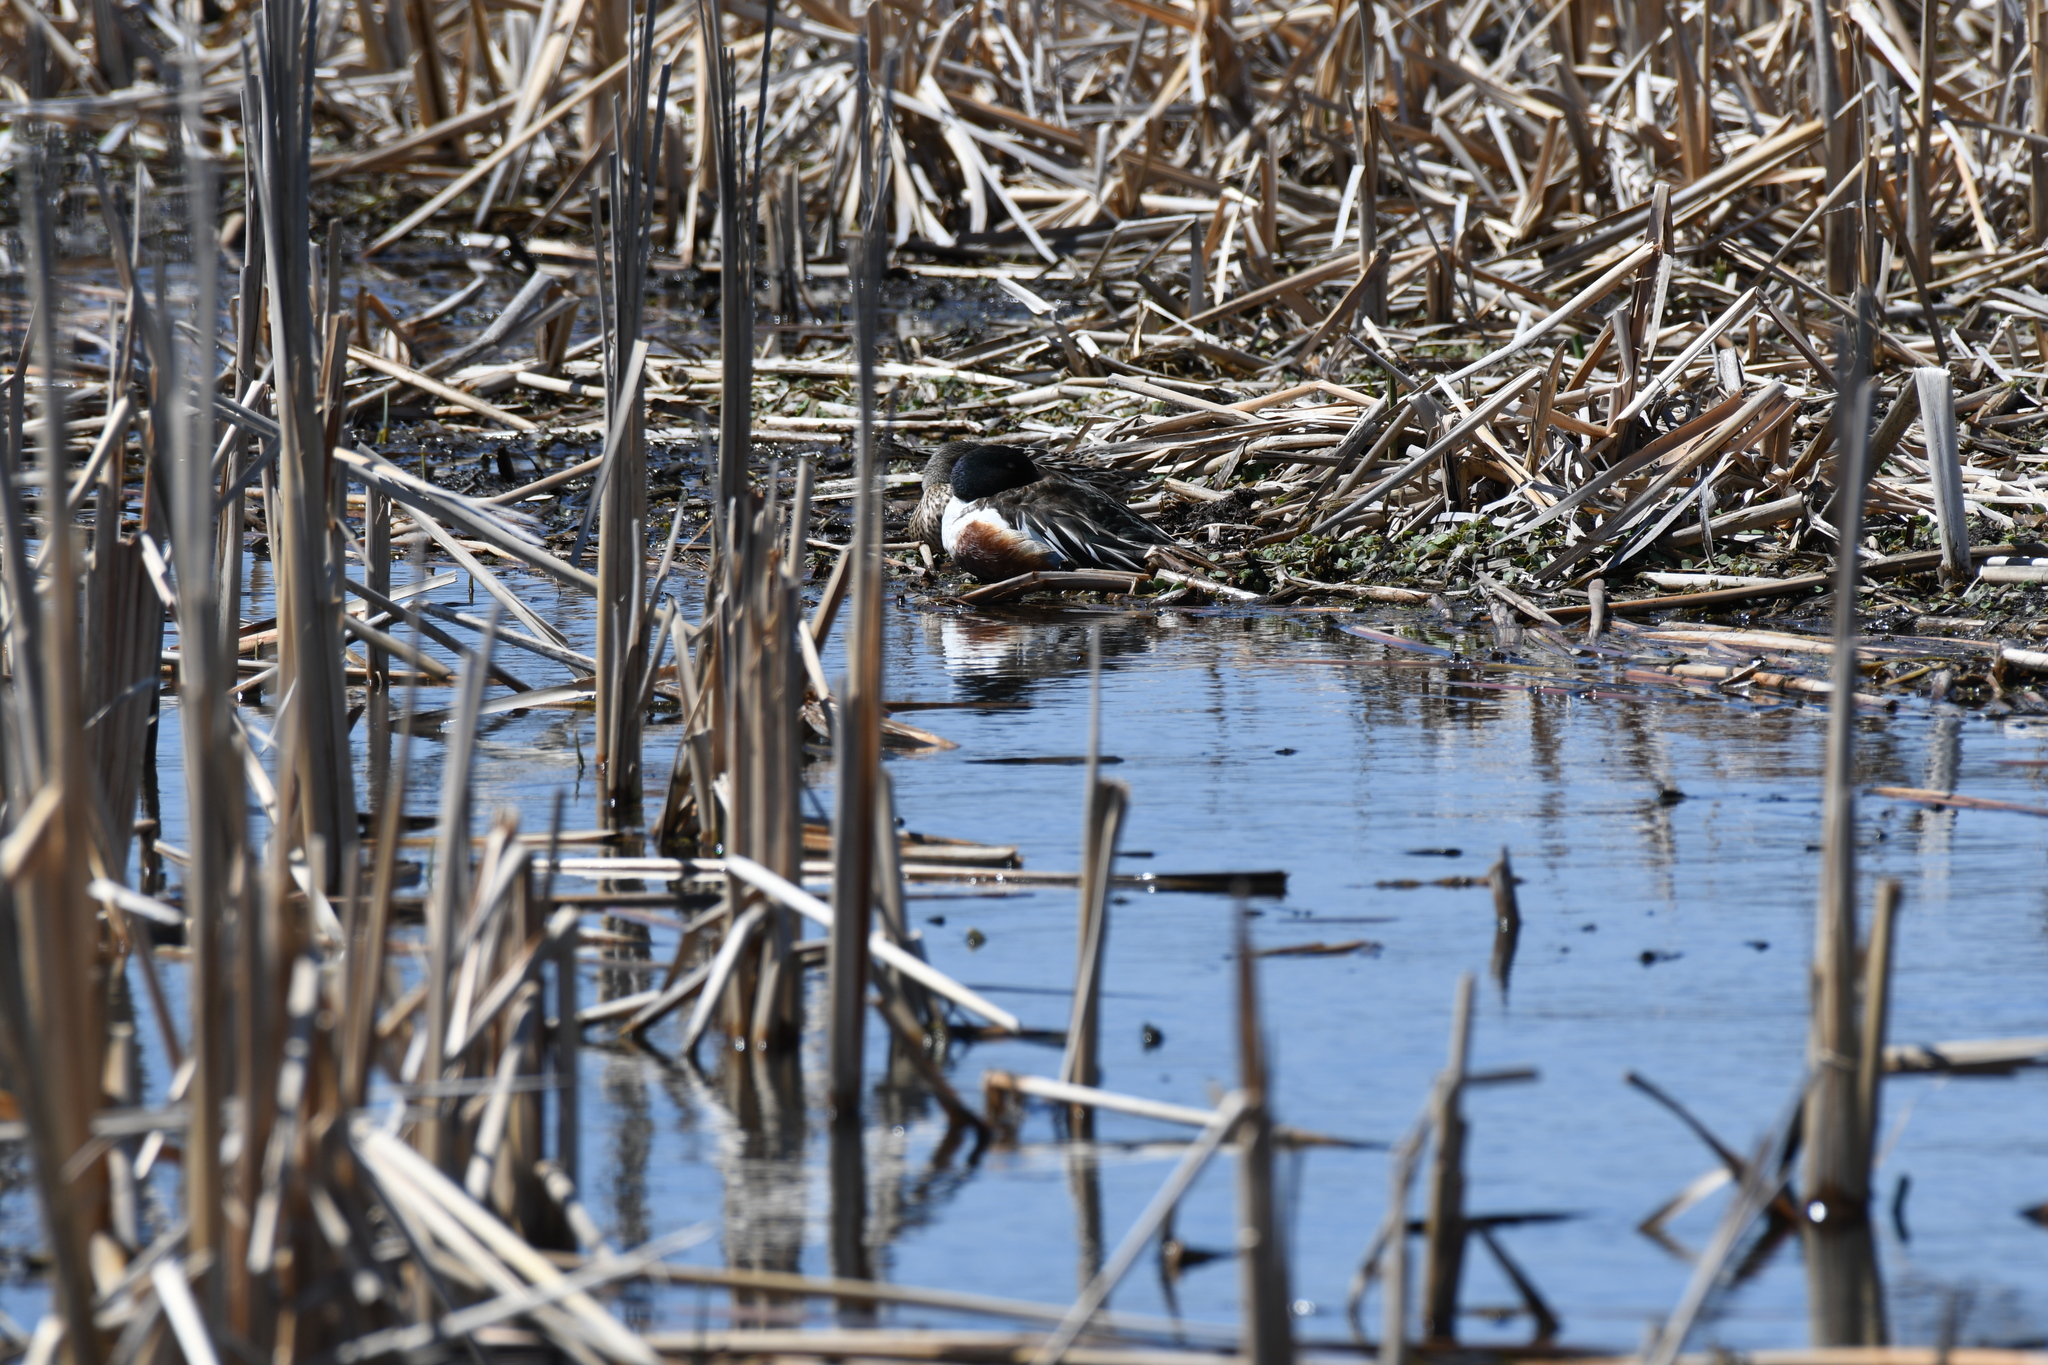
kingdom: Animalia
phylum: Chordata
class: Aves
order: Anseriformes
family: Anatidae
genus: Spatula
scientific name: Spatula clypeata
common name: Northern shoveler
